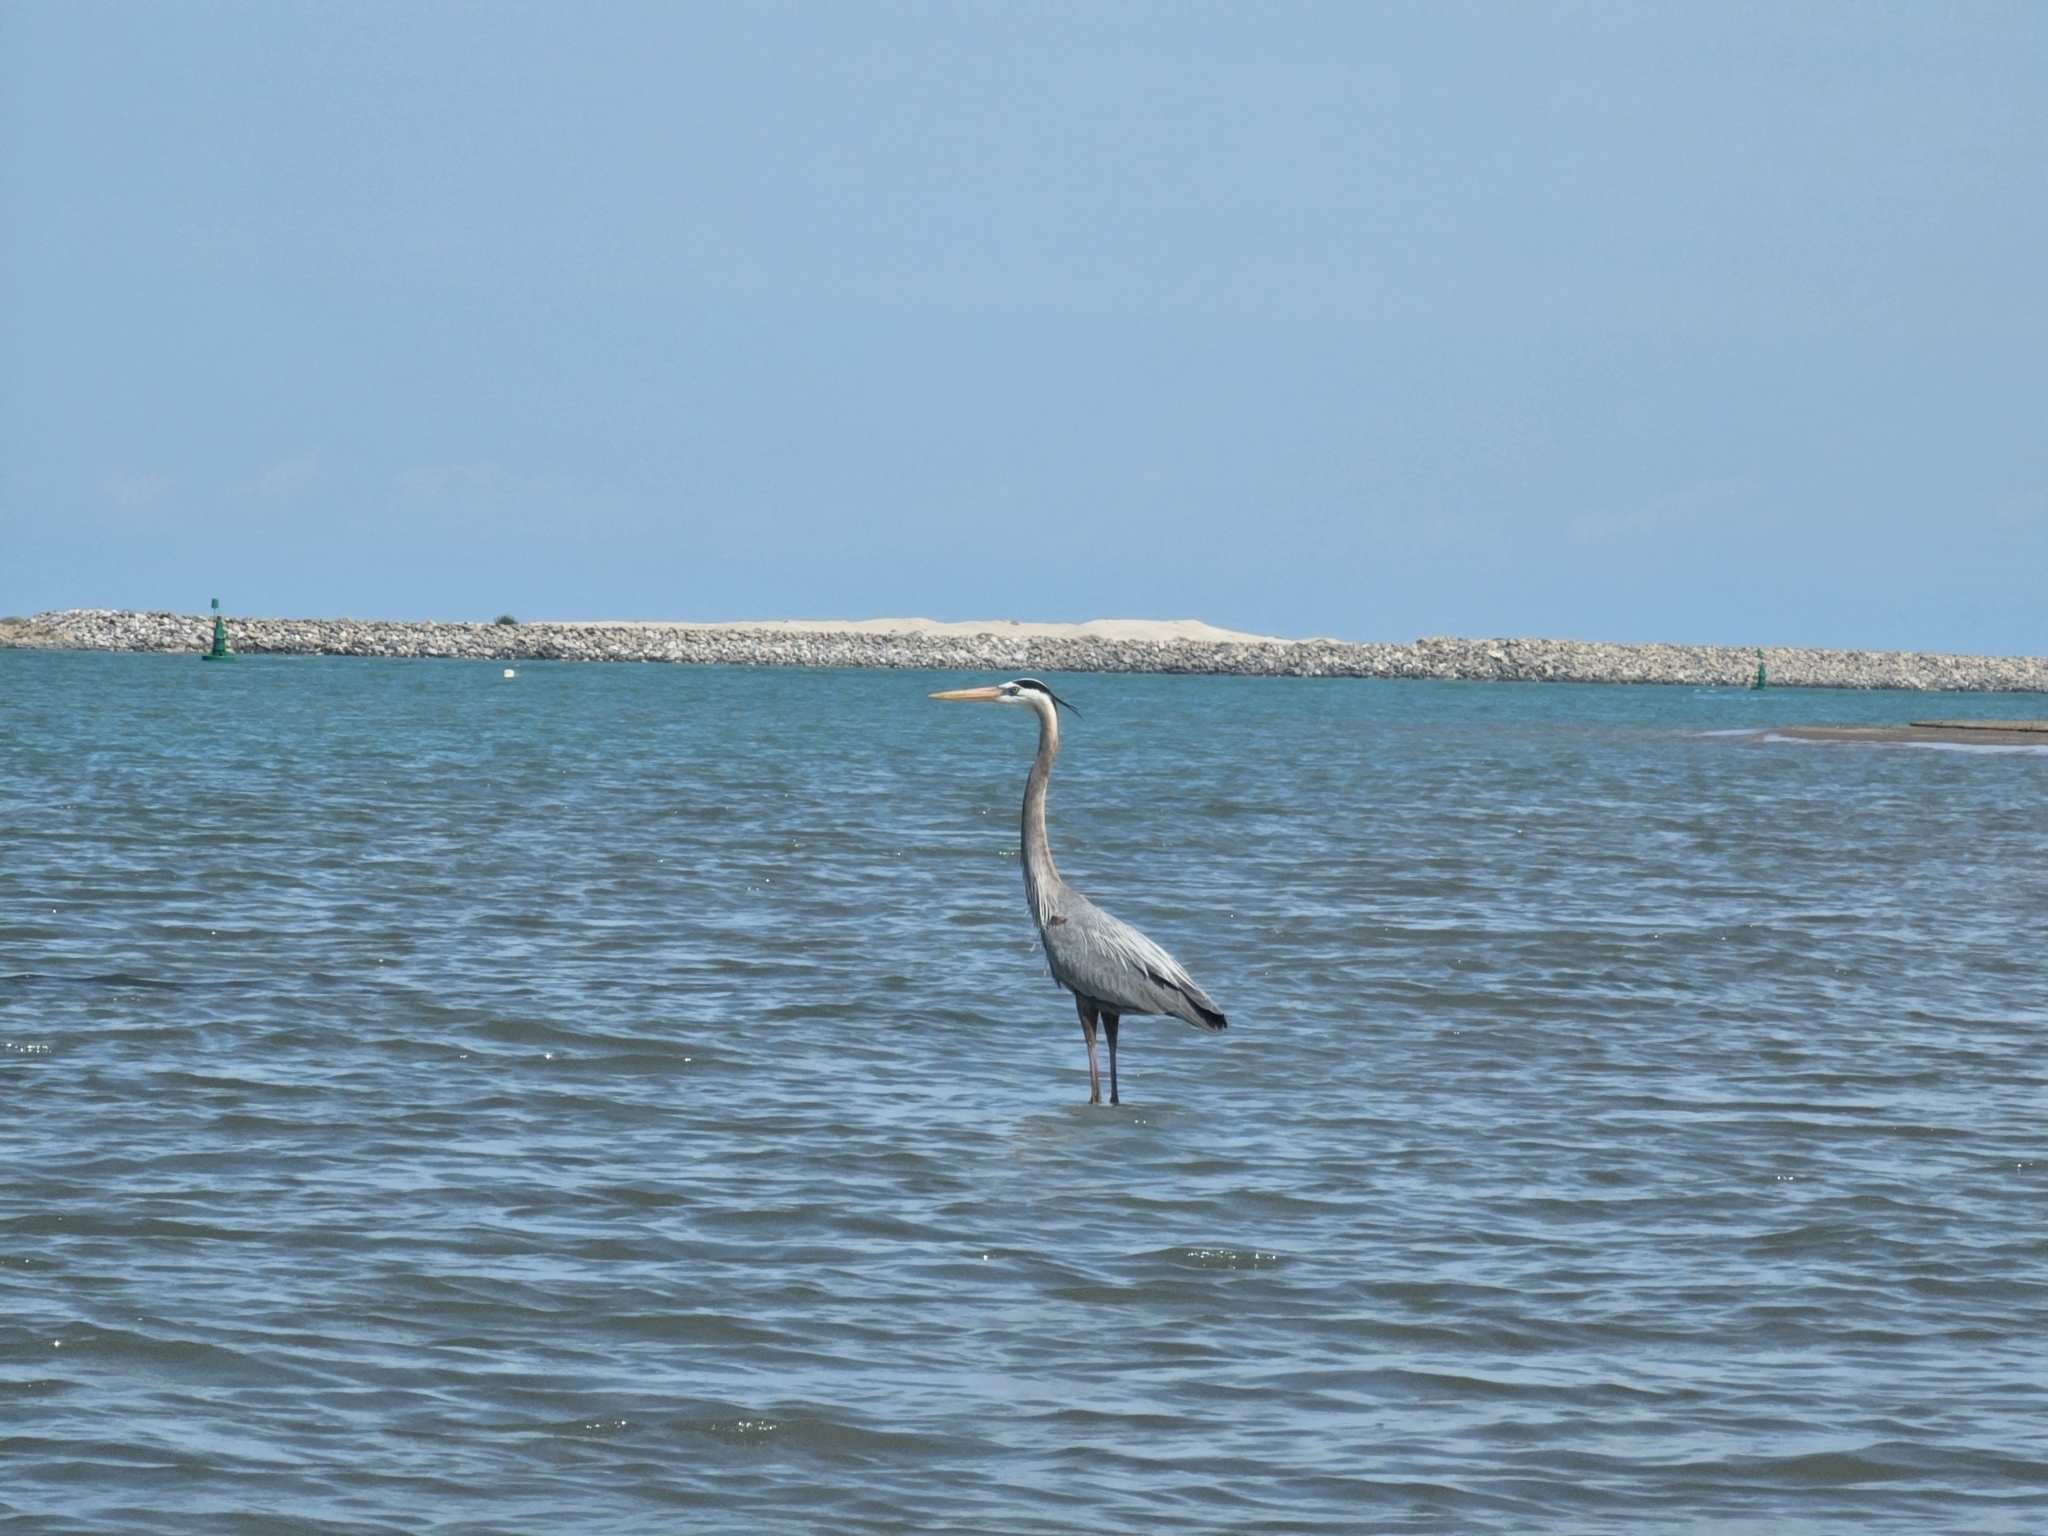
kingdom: Animalia
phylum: Chordata
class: Aves
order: Pelecaniformes
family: Ardeidae
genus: Ardea
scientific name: Ardea herodias
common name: Great blue heron
